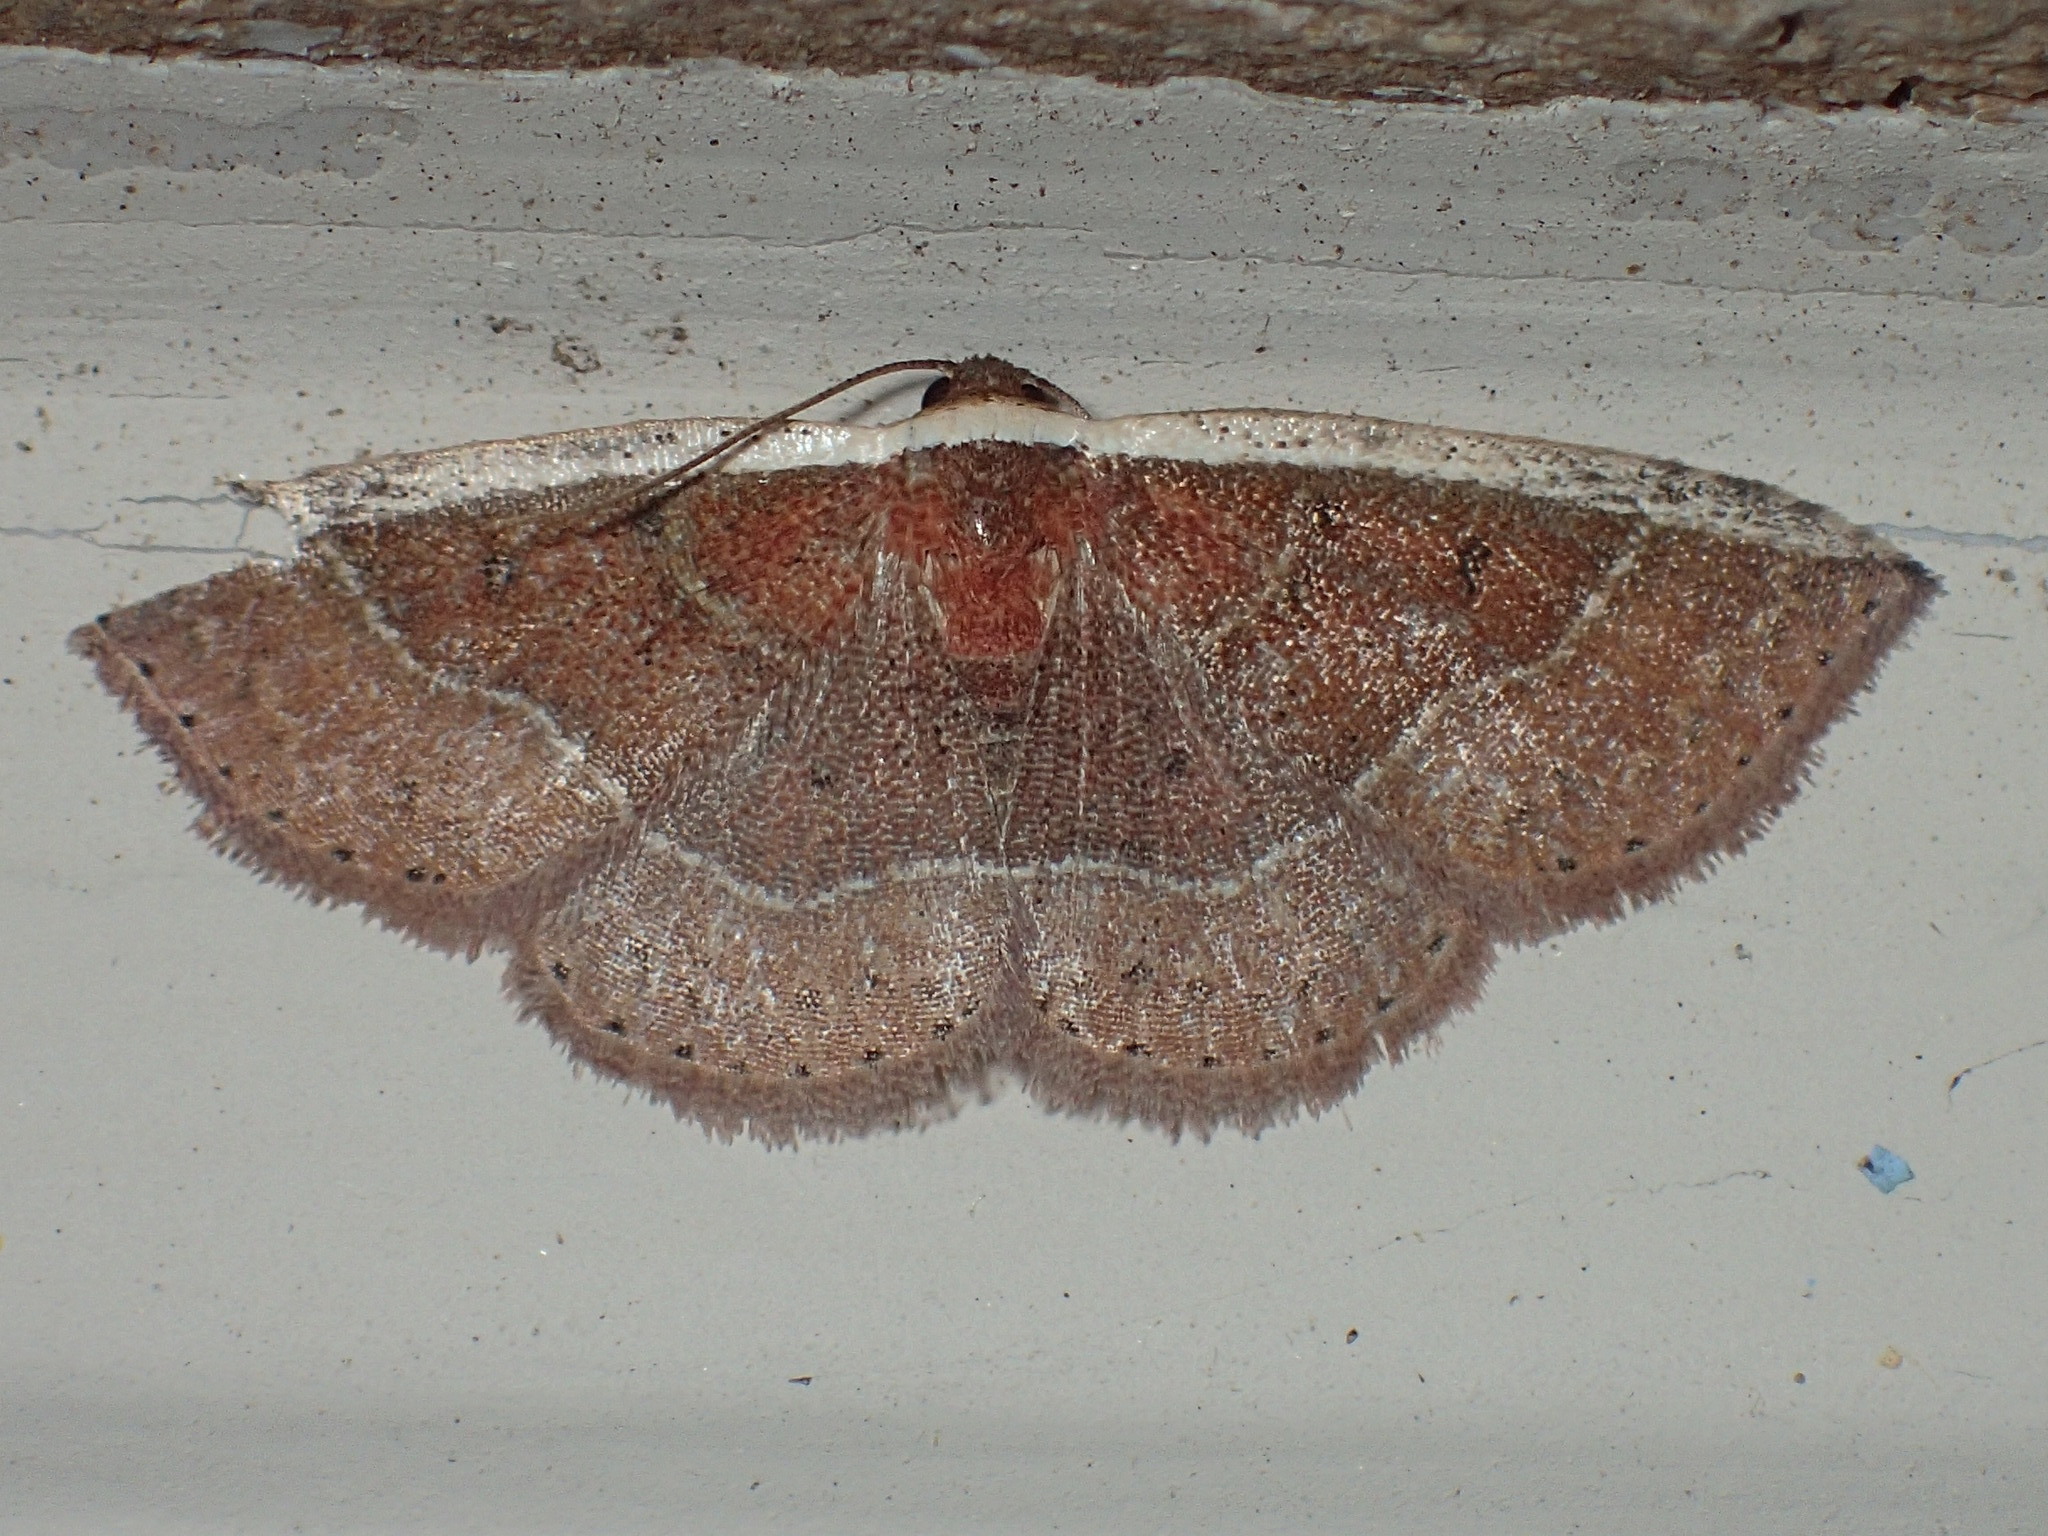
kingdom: Animalia
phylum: Arthropoda
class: Insecta
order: Lepidoptera
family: Noctuidae
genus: Ozarba
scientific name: Ozarba albocostaliata
